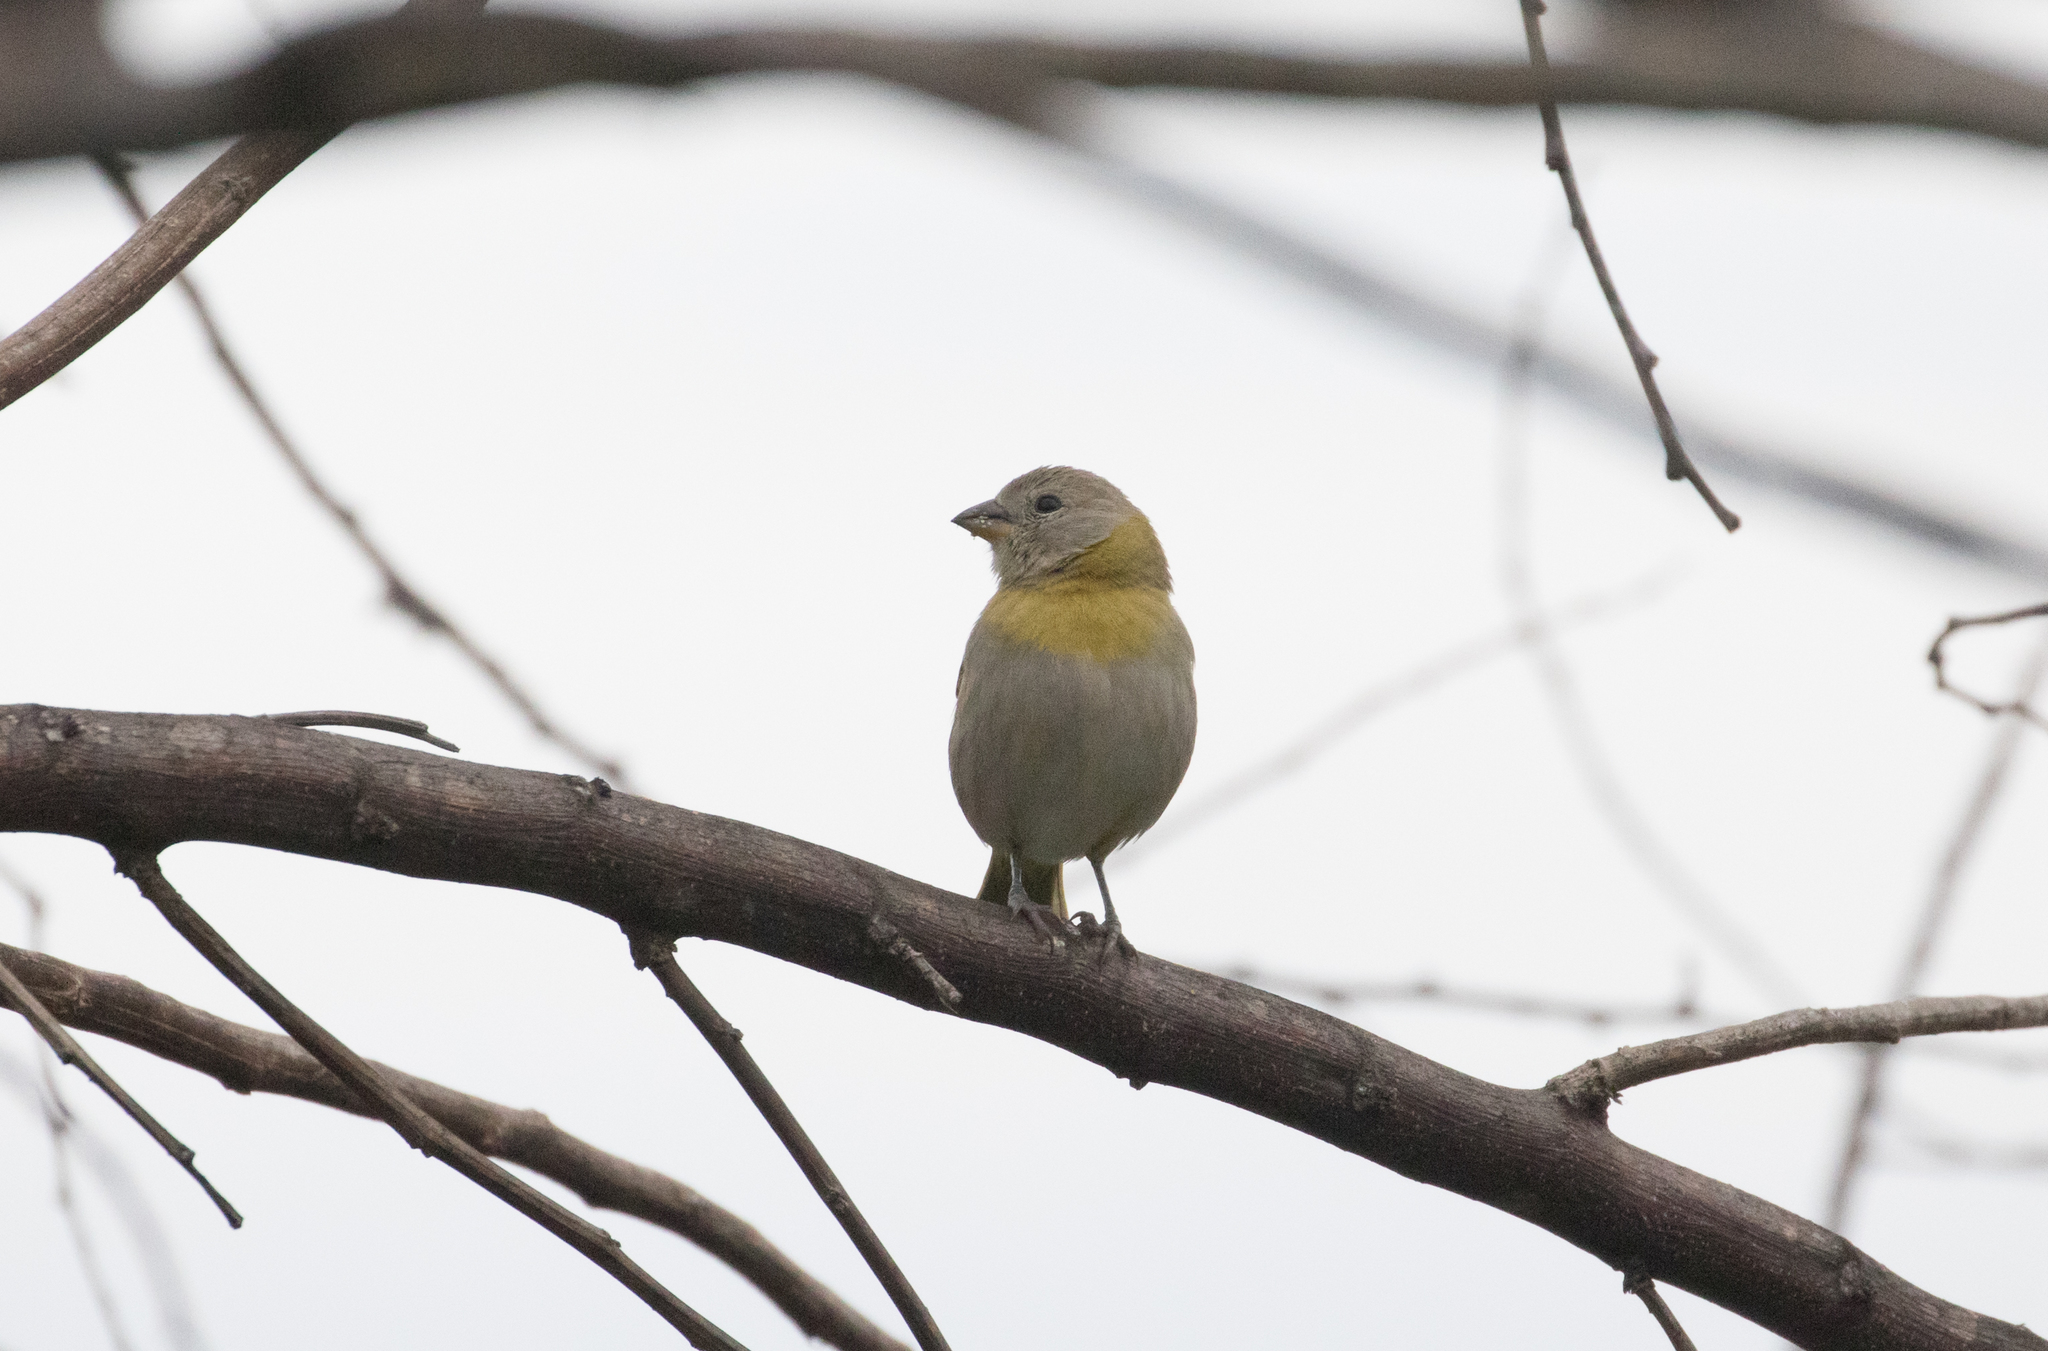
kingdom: Animalia
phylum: Chordata
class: Aves
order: Passeriformes
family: Thraupidae
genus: Sicalis
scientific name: Sicalis flaveola
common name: Saffron finch
